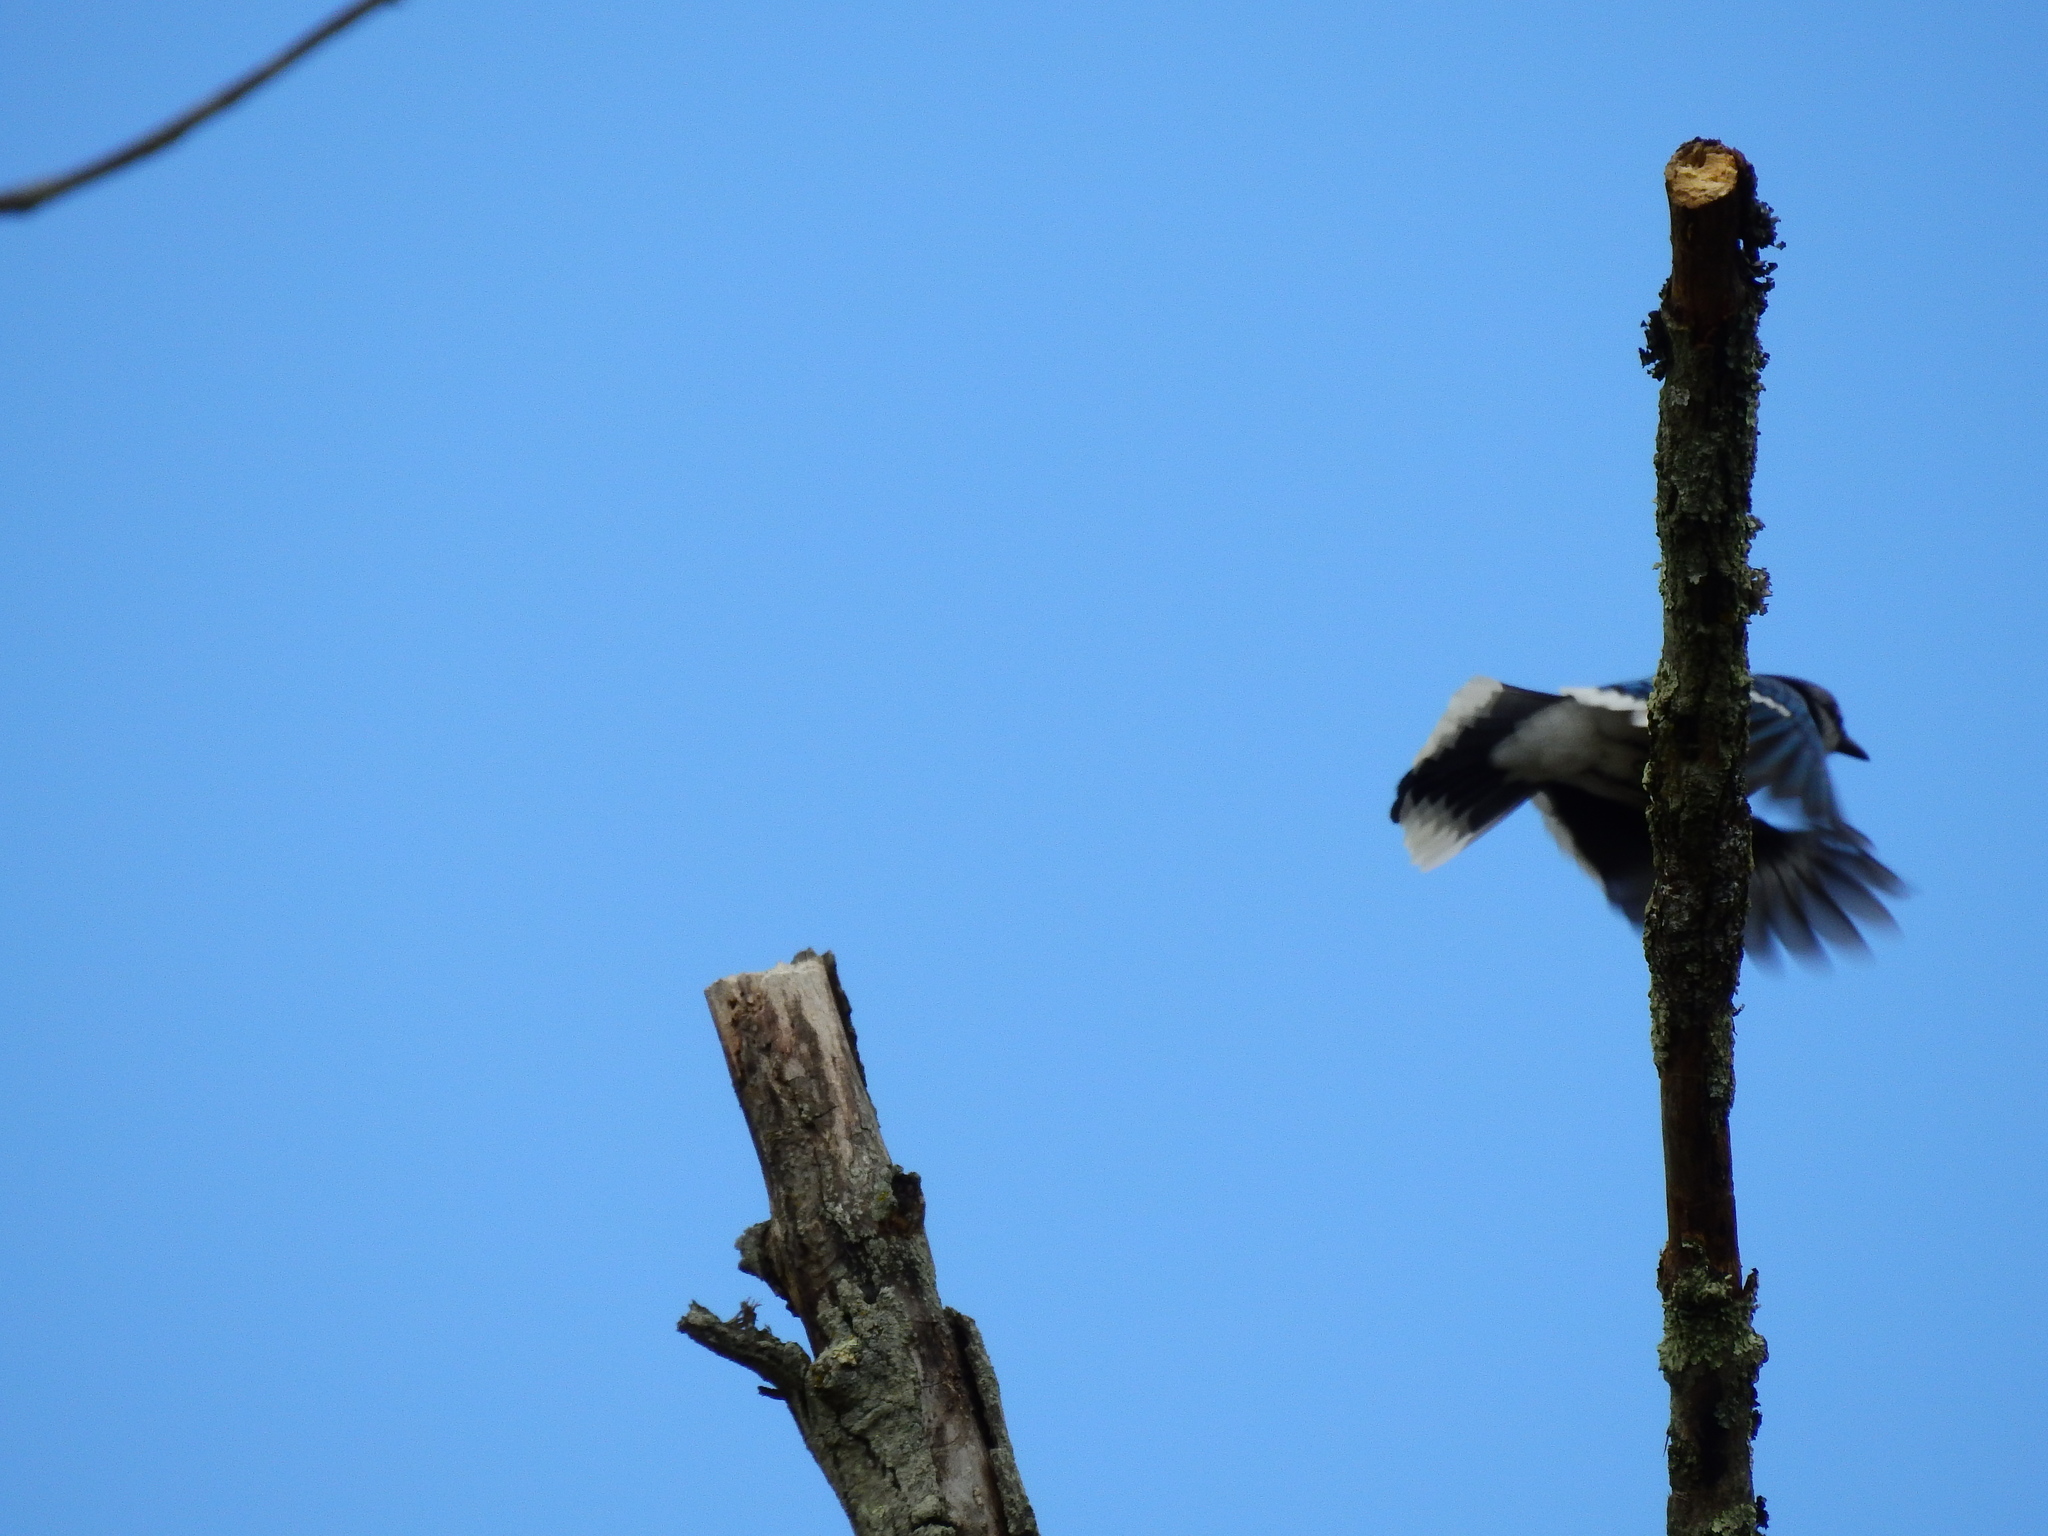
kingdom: Animalia
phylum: Chordata
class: Aves
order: Passeriformes
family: Corvidae
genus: Cyanocitta
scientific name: Cyanocitta cristata
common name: Blue jay
